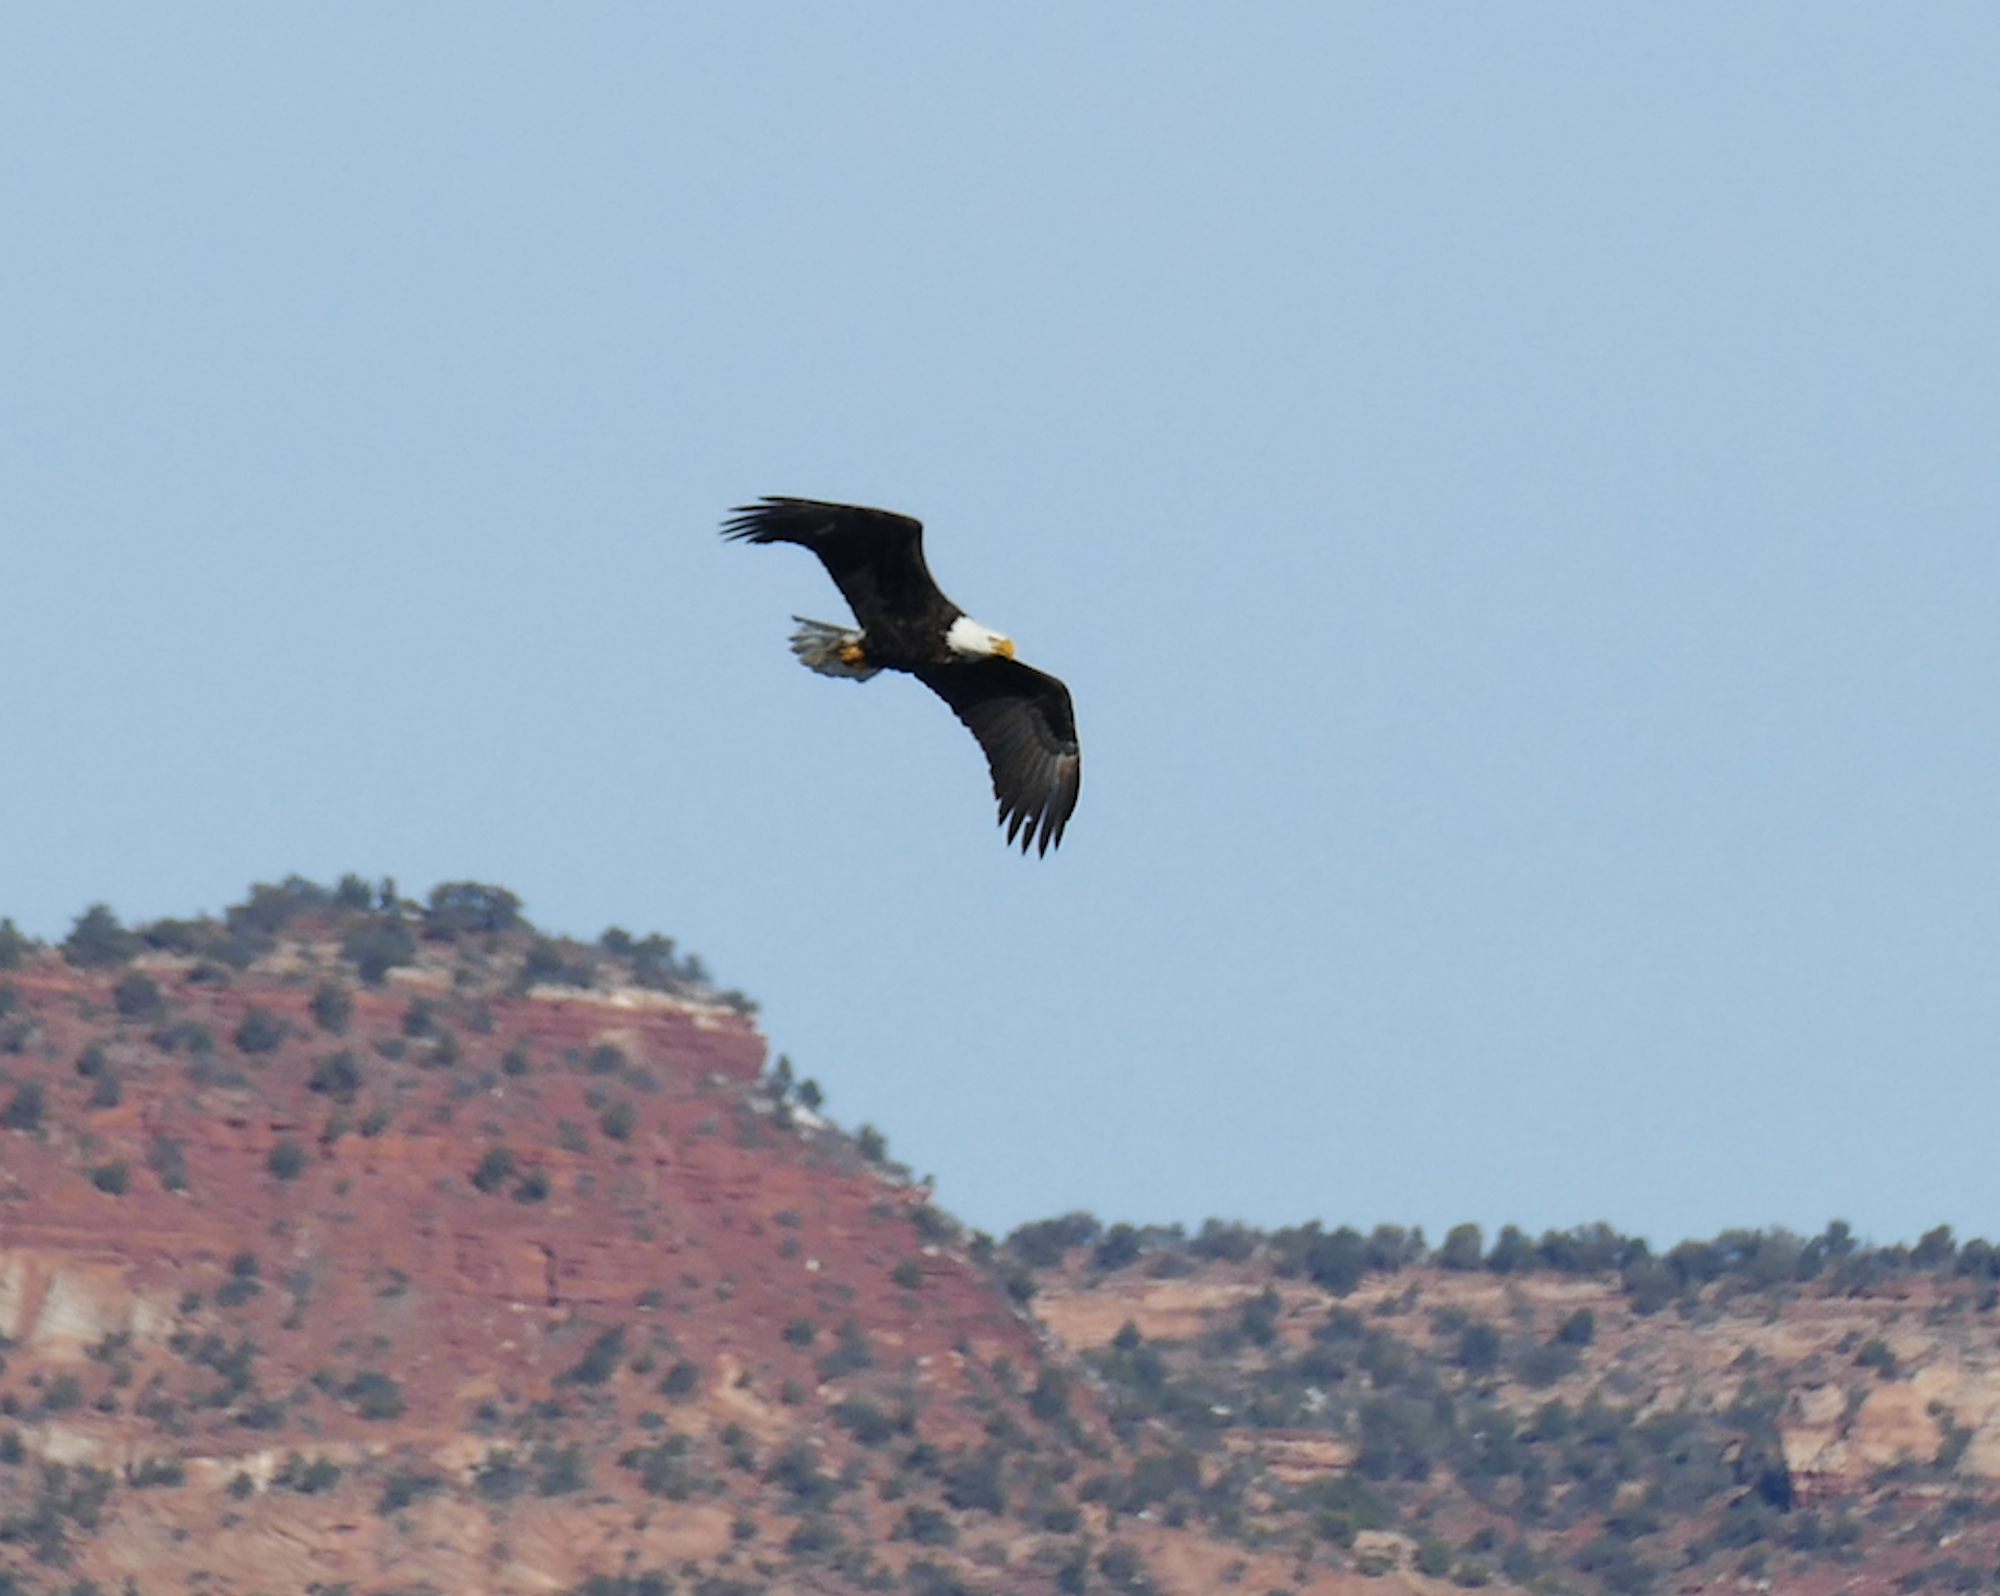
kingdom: Animalia
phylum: Chordata
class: Aves
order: Accipitriformes
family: Accipitridae
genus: Haliaeetus
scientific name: Haliaeetus leucocephalus
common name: Bald eagle
